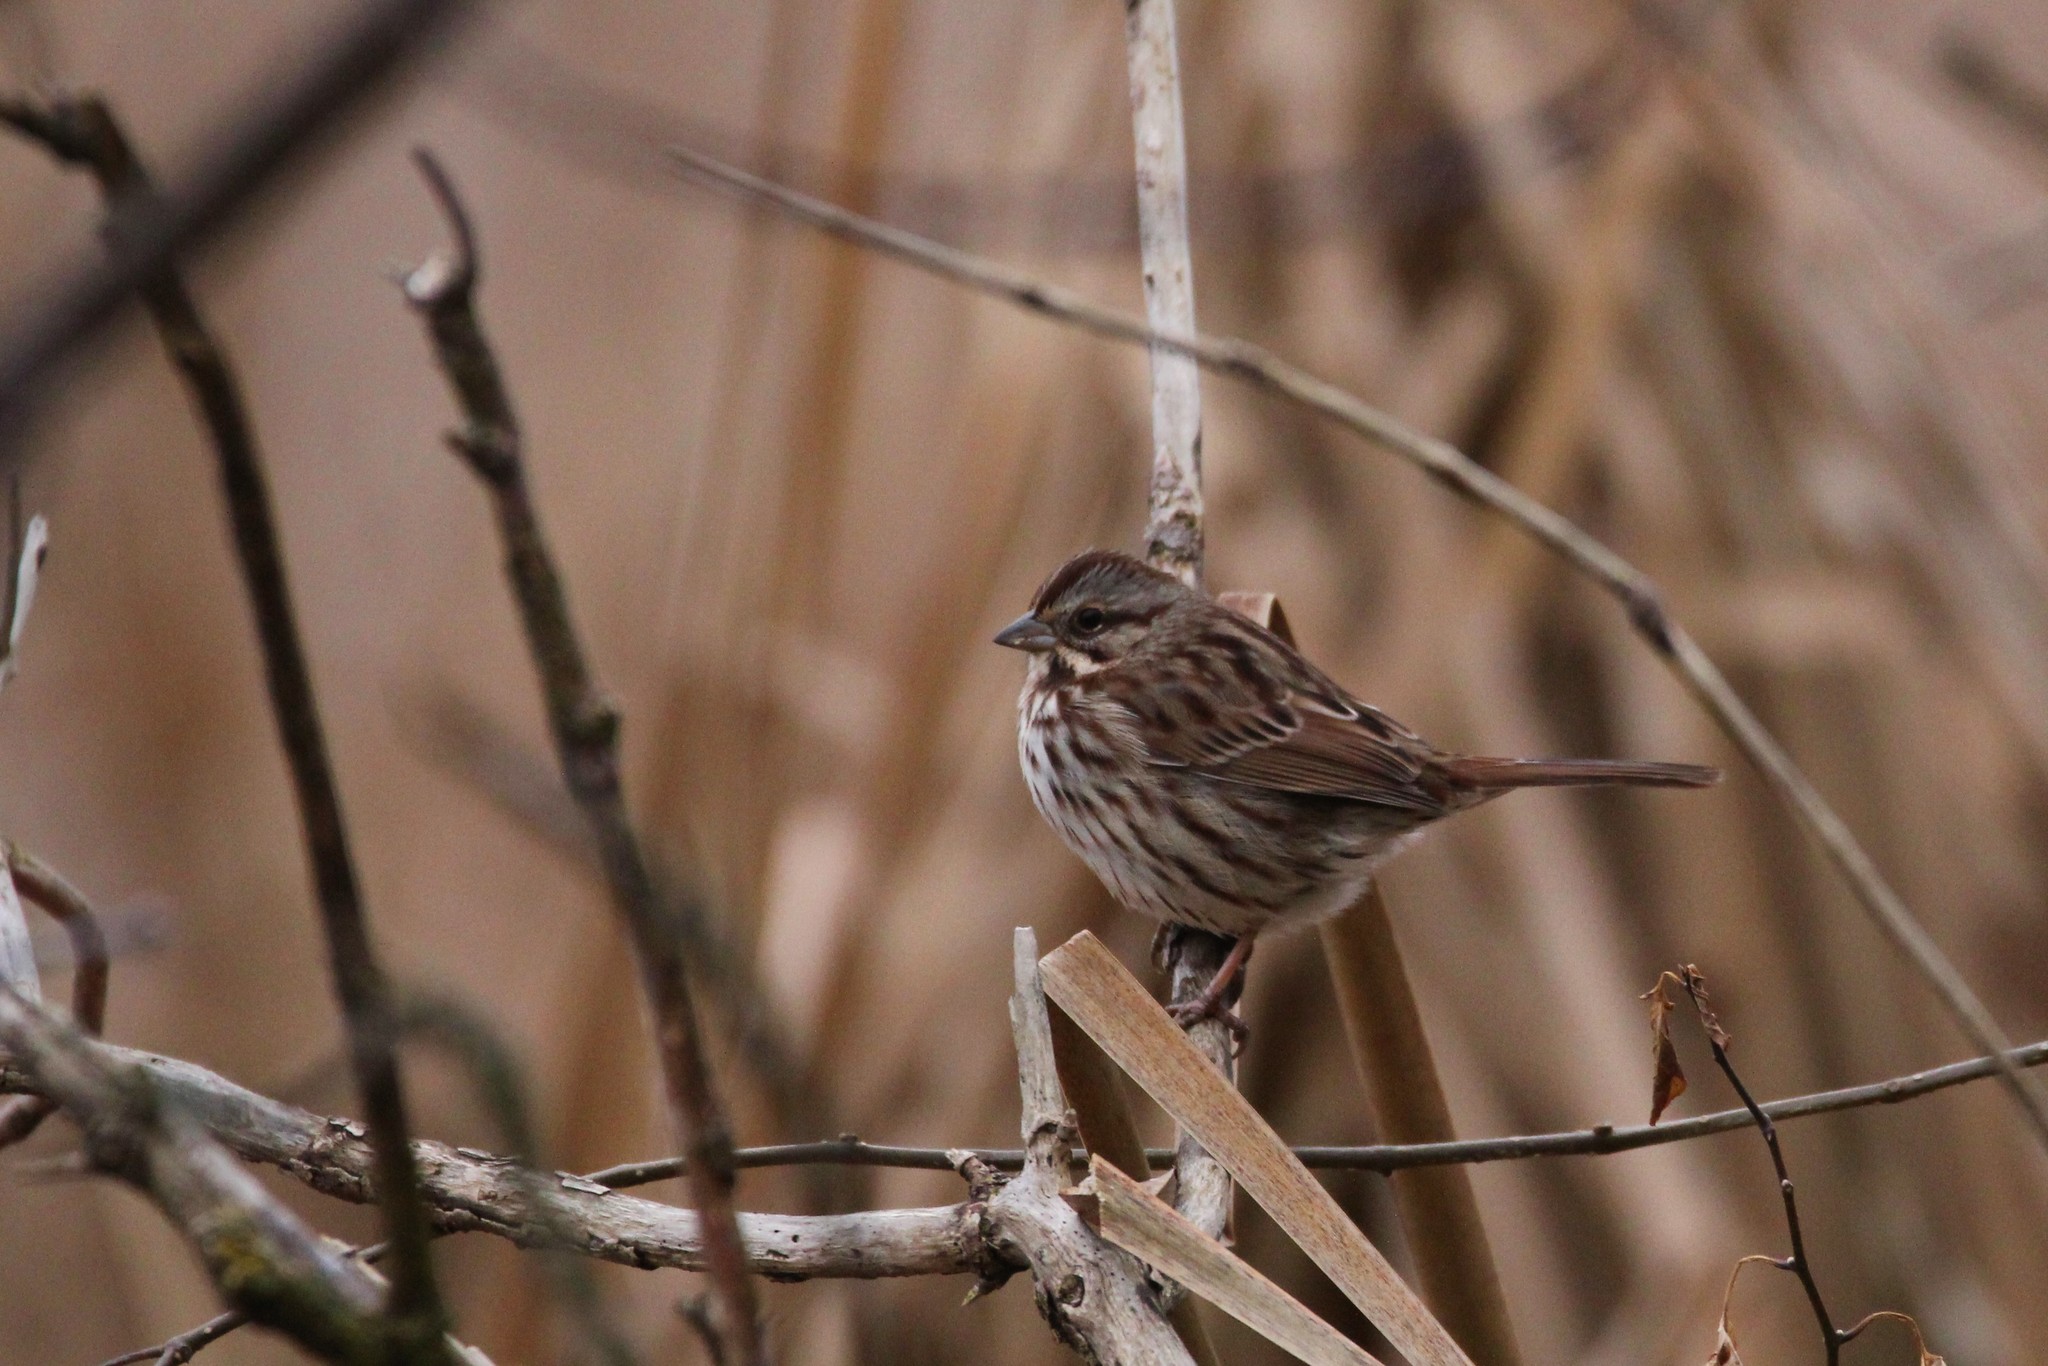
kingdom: Animalia
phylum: Chordata
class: Aves
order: Passeriformes
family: Passerellidae
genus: Melospiza
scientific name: Melospiza melodia
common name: Song sparrow
